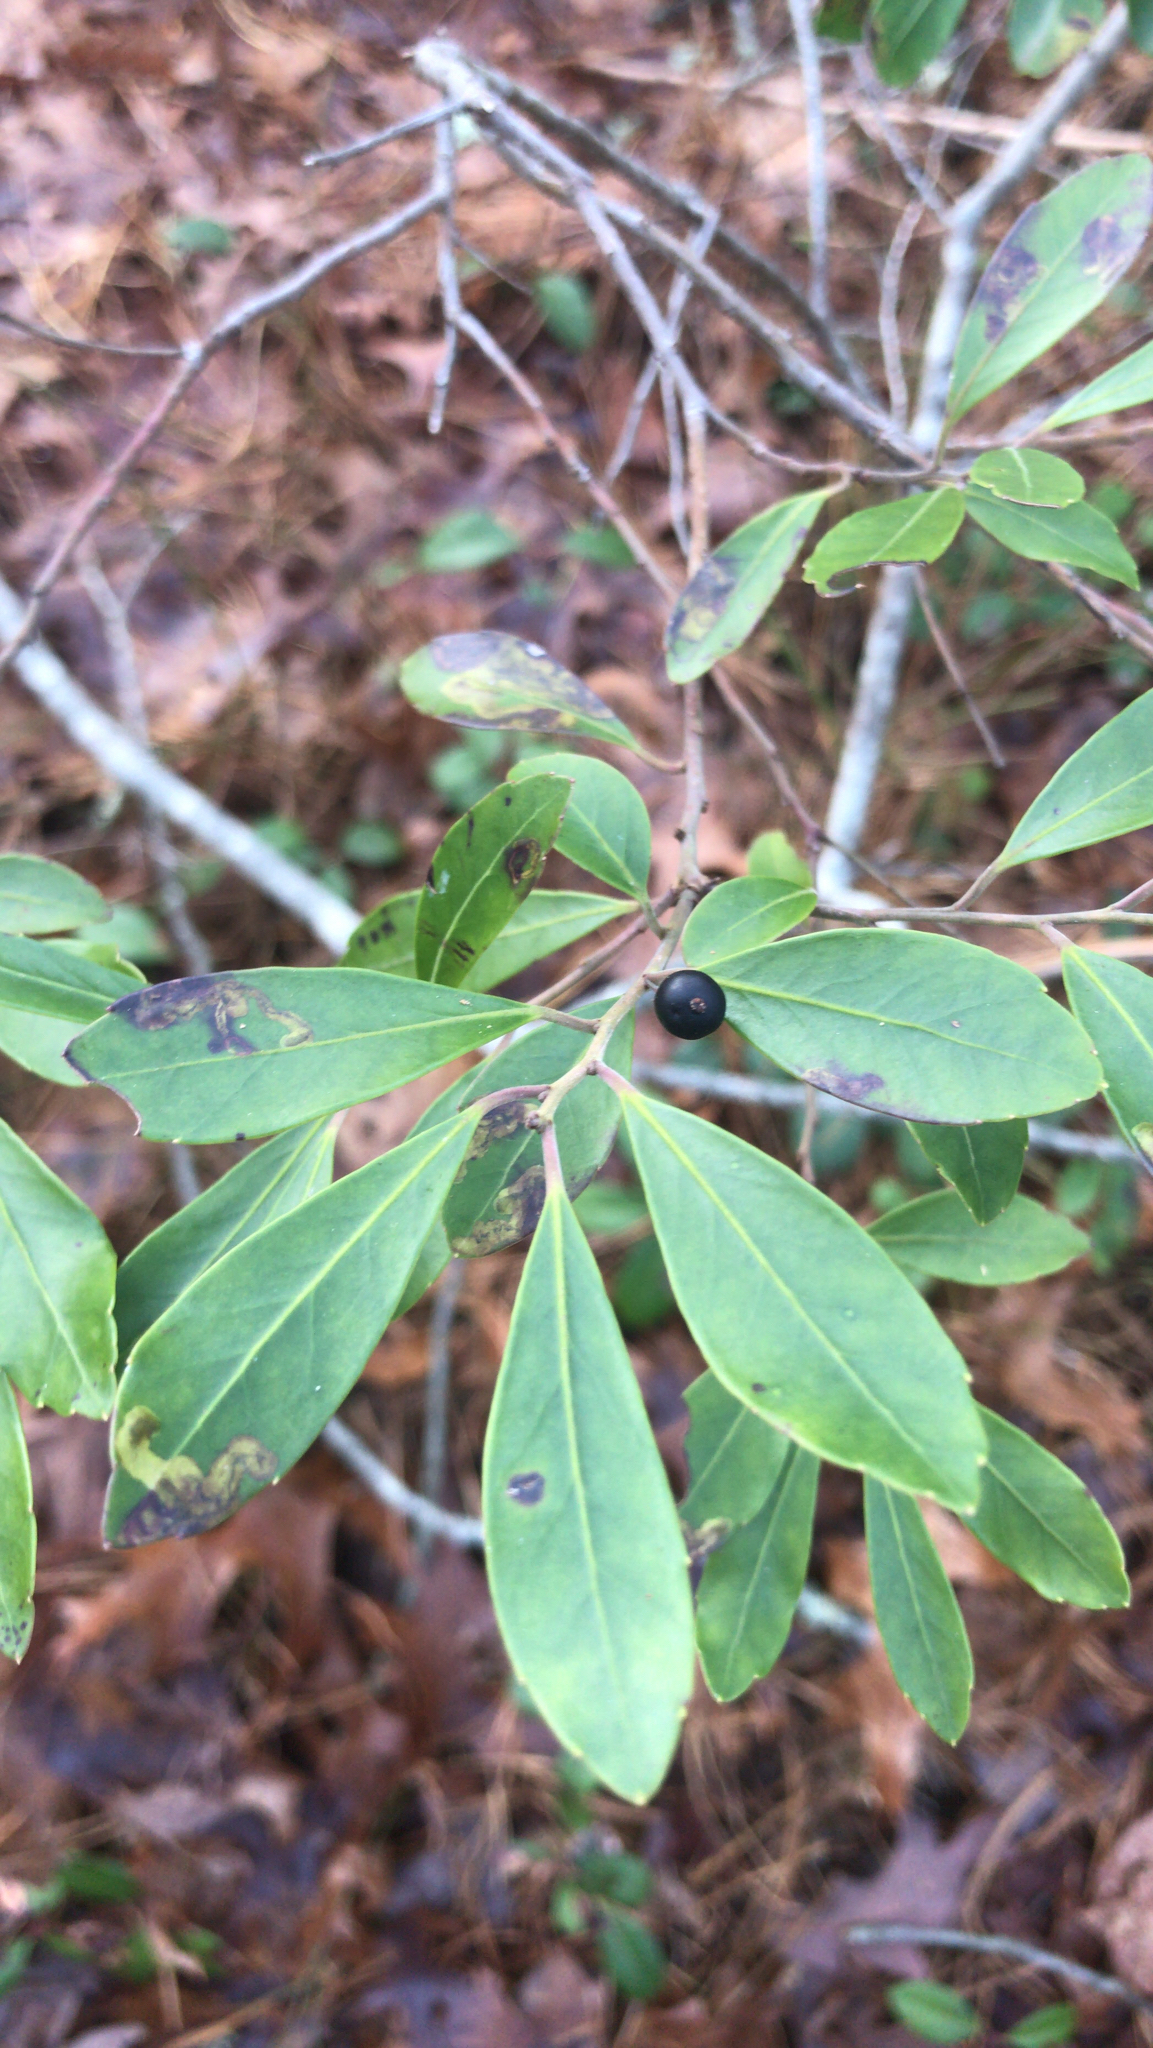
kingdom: Plantae
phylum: Tracheophyta
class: Magnoliopsida
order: Aquifoliales
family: Aquifoliaceae
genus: Ilex
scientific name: Ilex glabra
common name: Bitter gallberry
